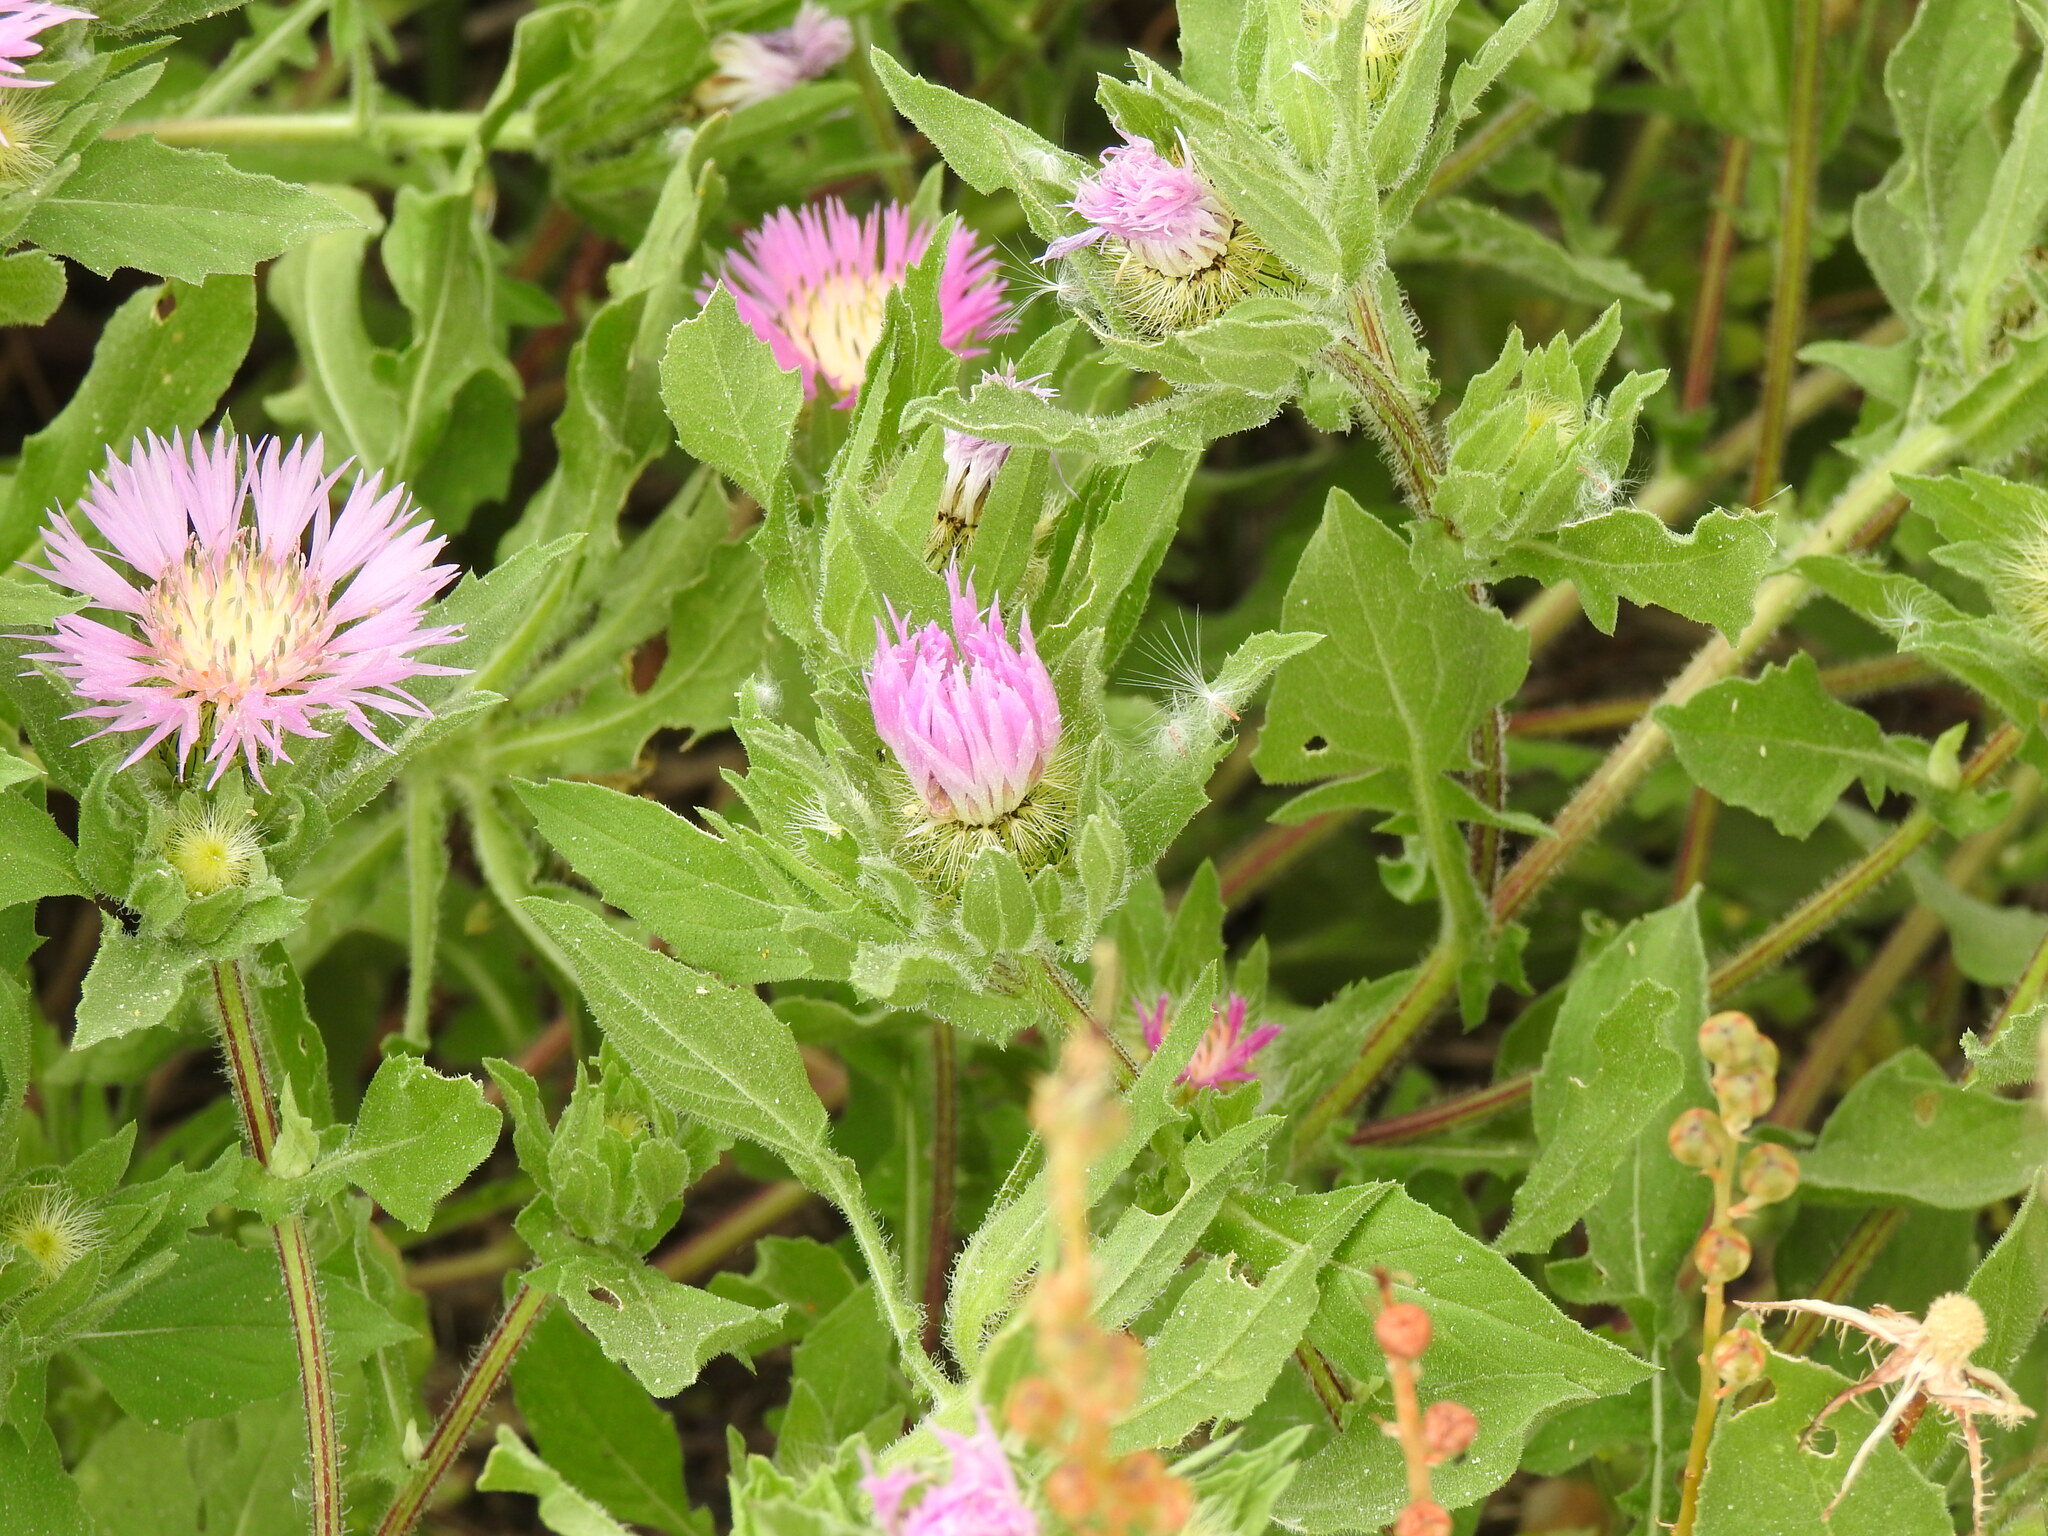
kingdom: Plantae
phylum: Tracheophyta
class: Magnoliopsida
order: Asterales
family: Asteraceae
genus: Centaurea
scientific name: Centaurea pullata
